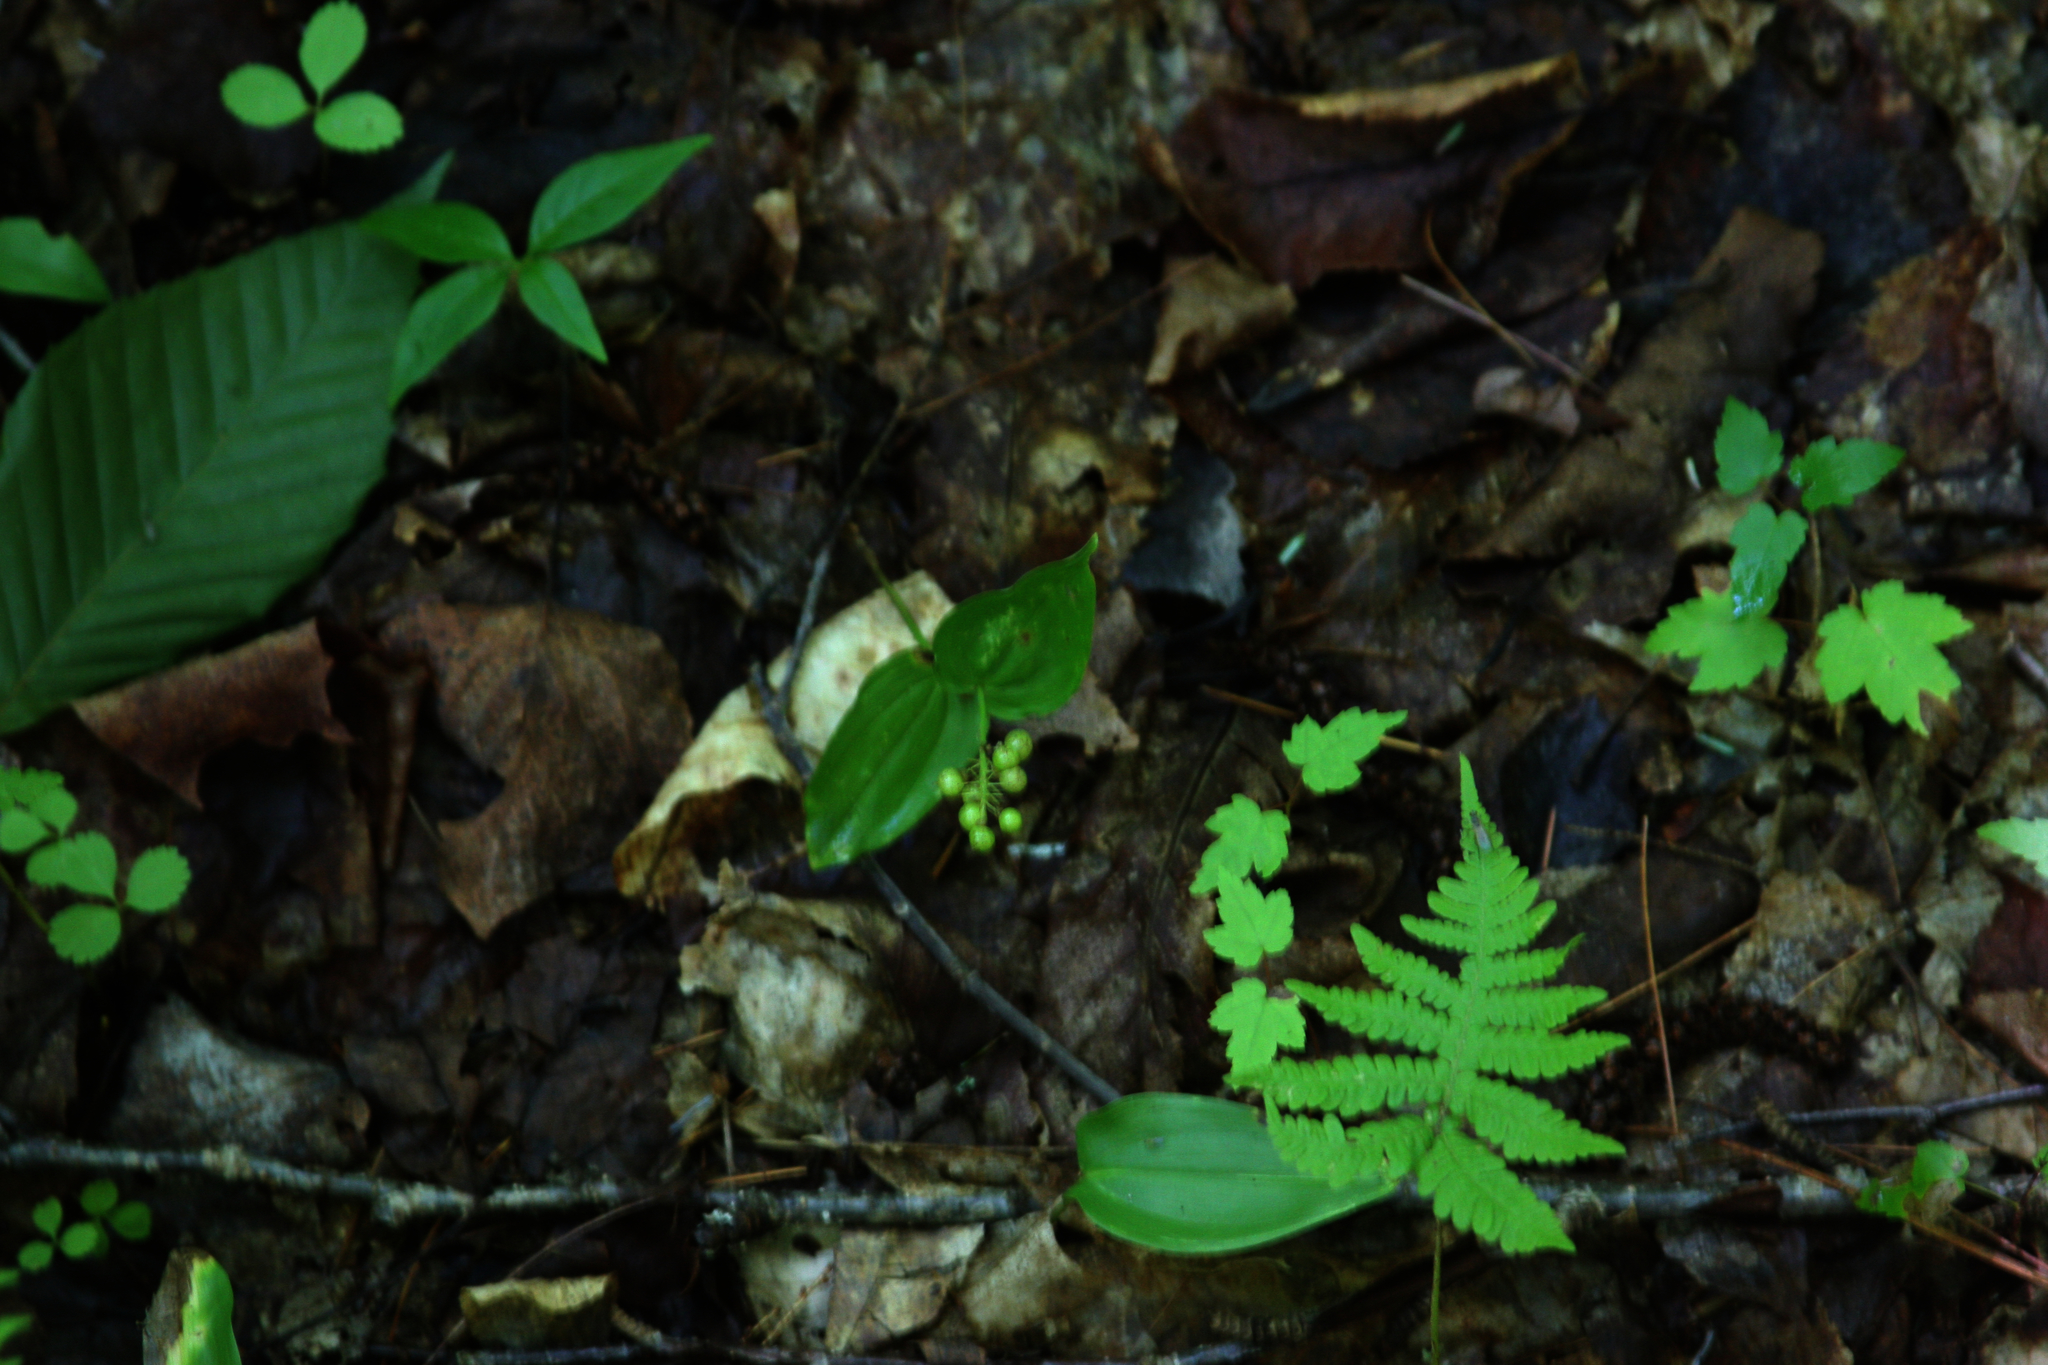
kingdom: Plantae
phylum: Tracheophyta
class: Liliopsida
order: Asparagales
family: Asparagaceae
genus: Maianthemum
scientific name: Maianthemum canadense
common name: False lily-of-the-valley
